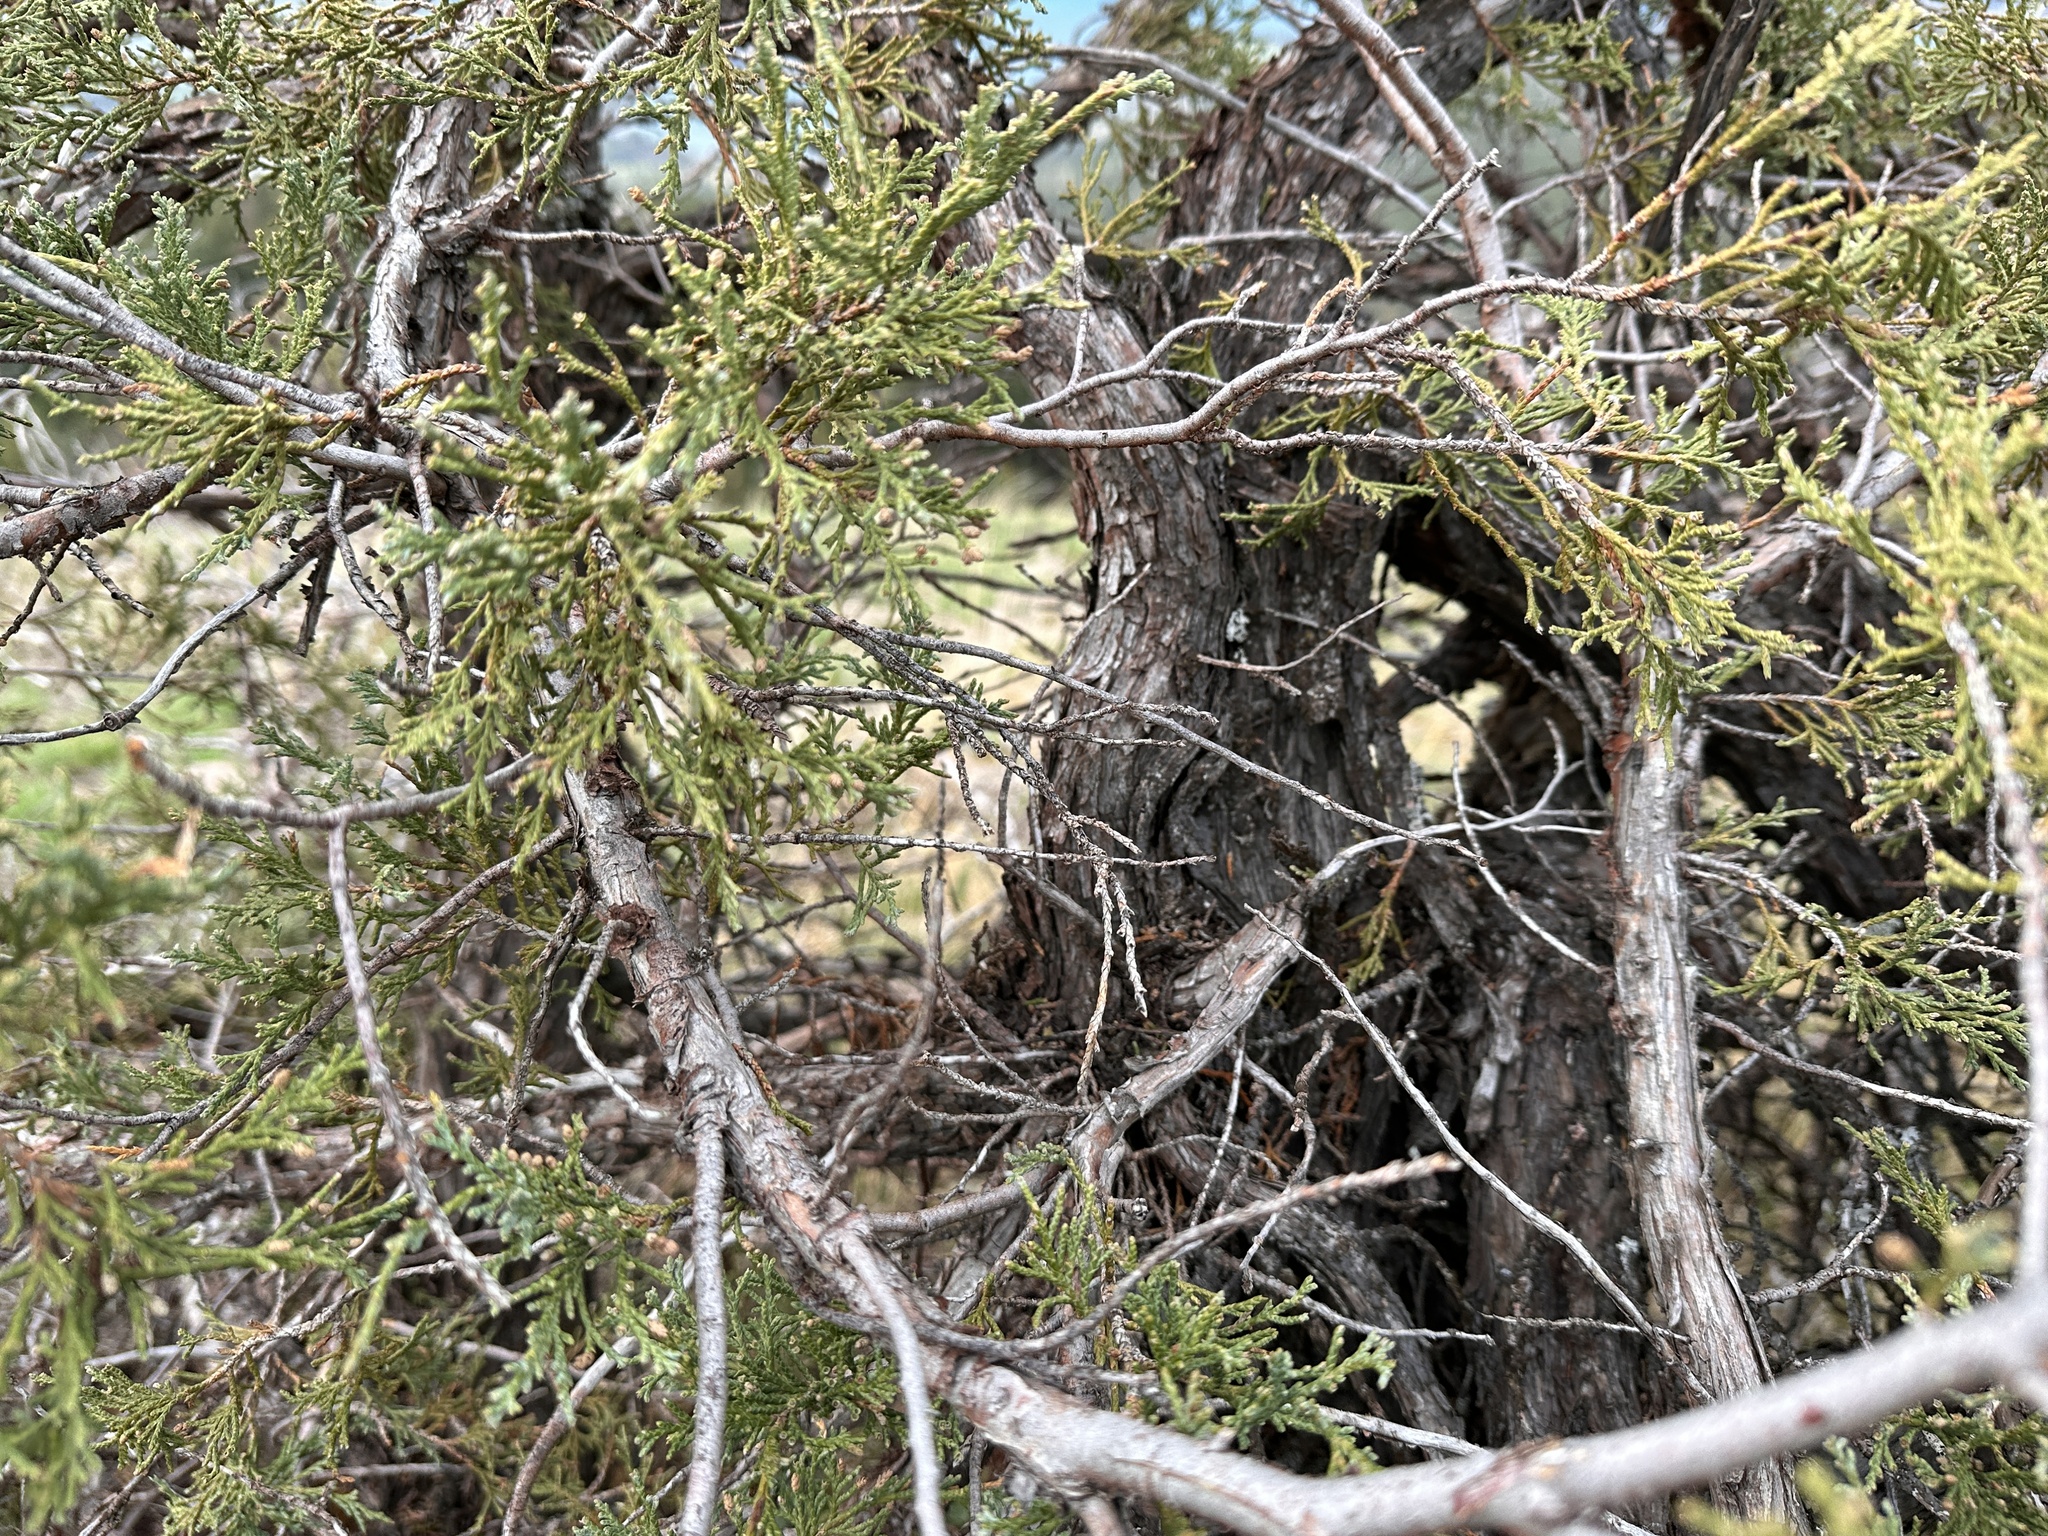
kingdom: Plantae
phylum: Tracheophyta
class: Pinopsida
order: Pinales
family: Cupressaceae
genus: Juniperus
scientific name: Juniperus scopulorum
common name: Rocky mountain juniper
